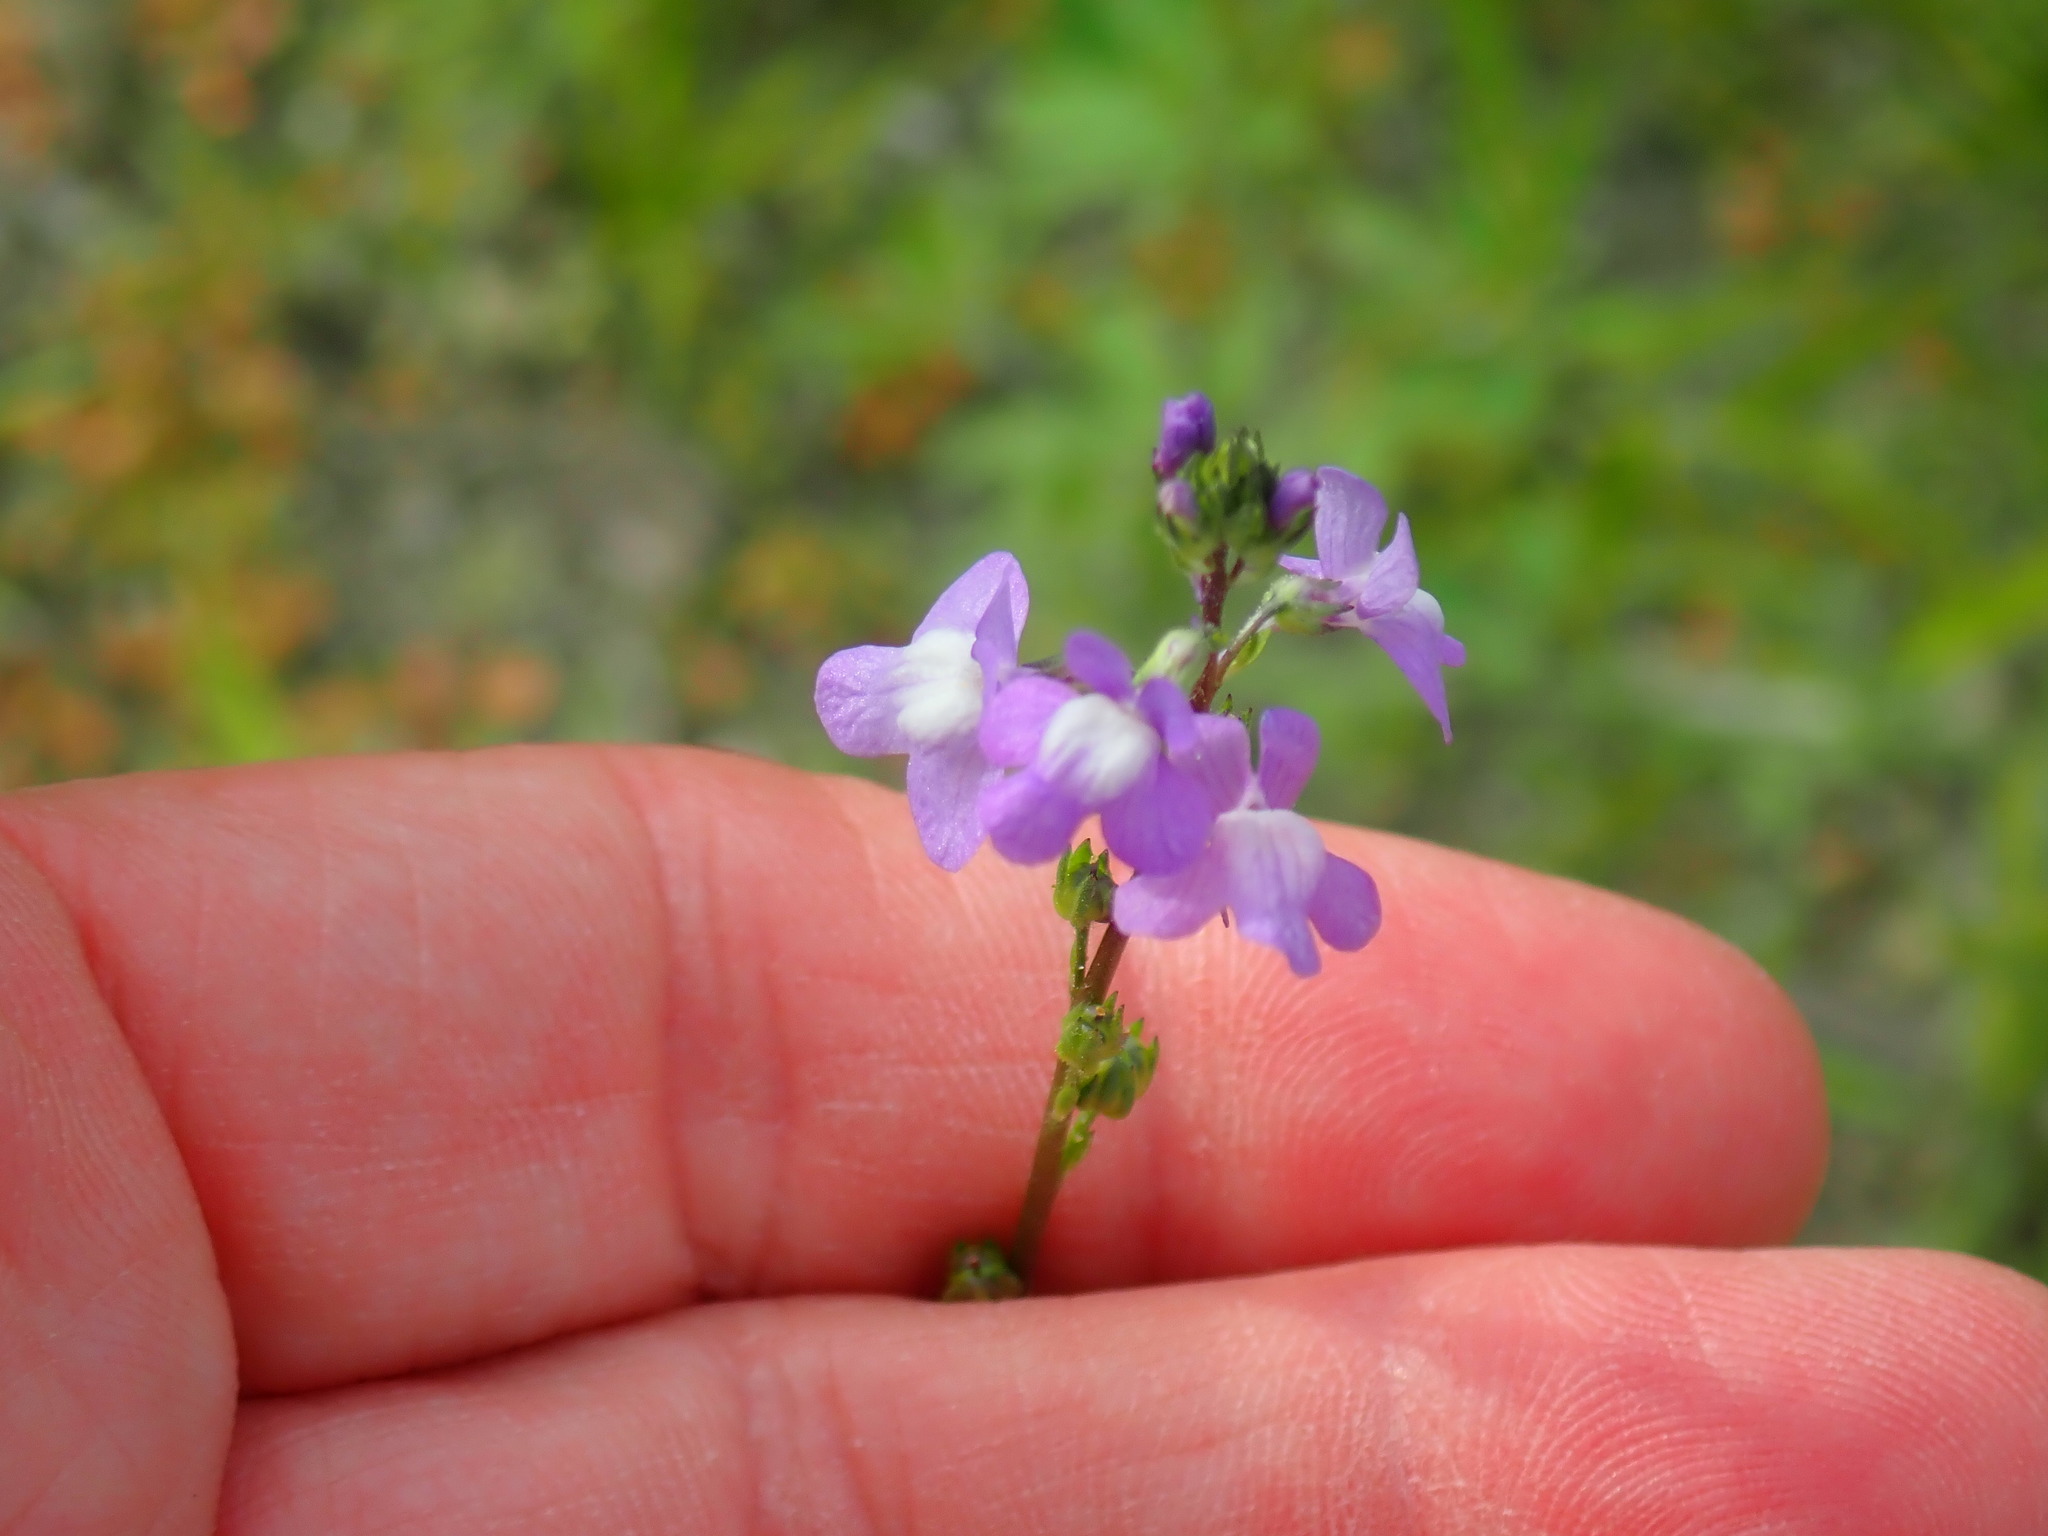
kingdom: Plantae
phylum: Tracheophyta
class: Magnoliopsida
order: Lamiales
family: Plantaginaceae
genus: Nuttallanthus
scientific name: Nuttallanthus canadensis
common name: Blue toadflax
